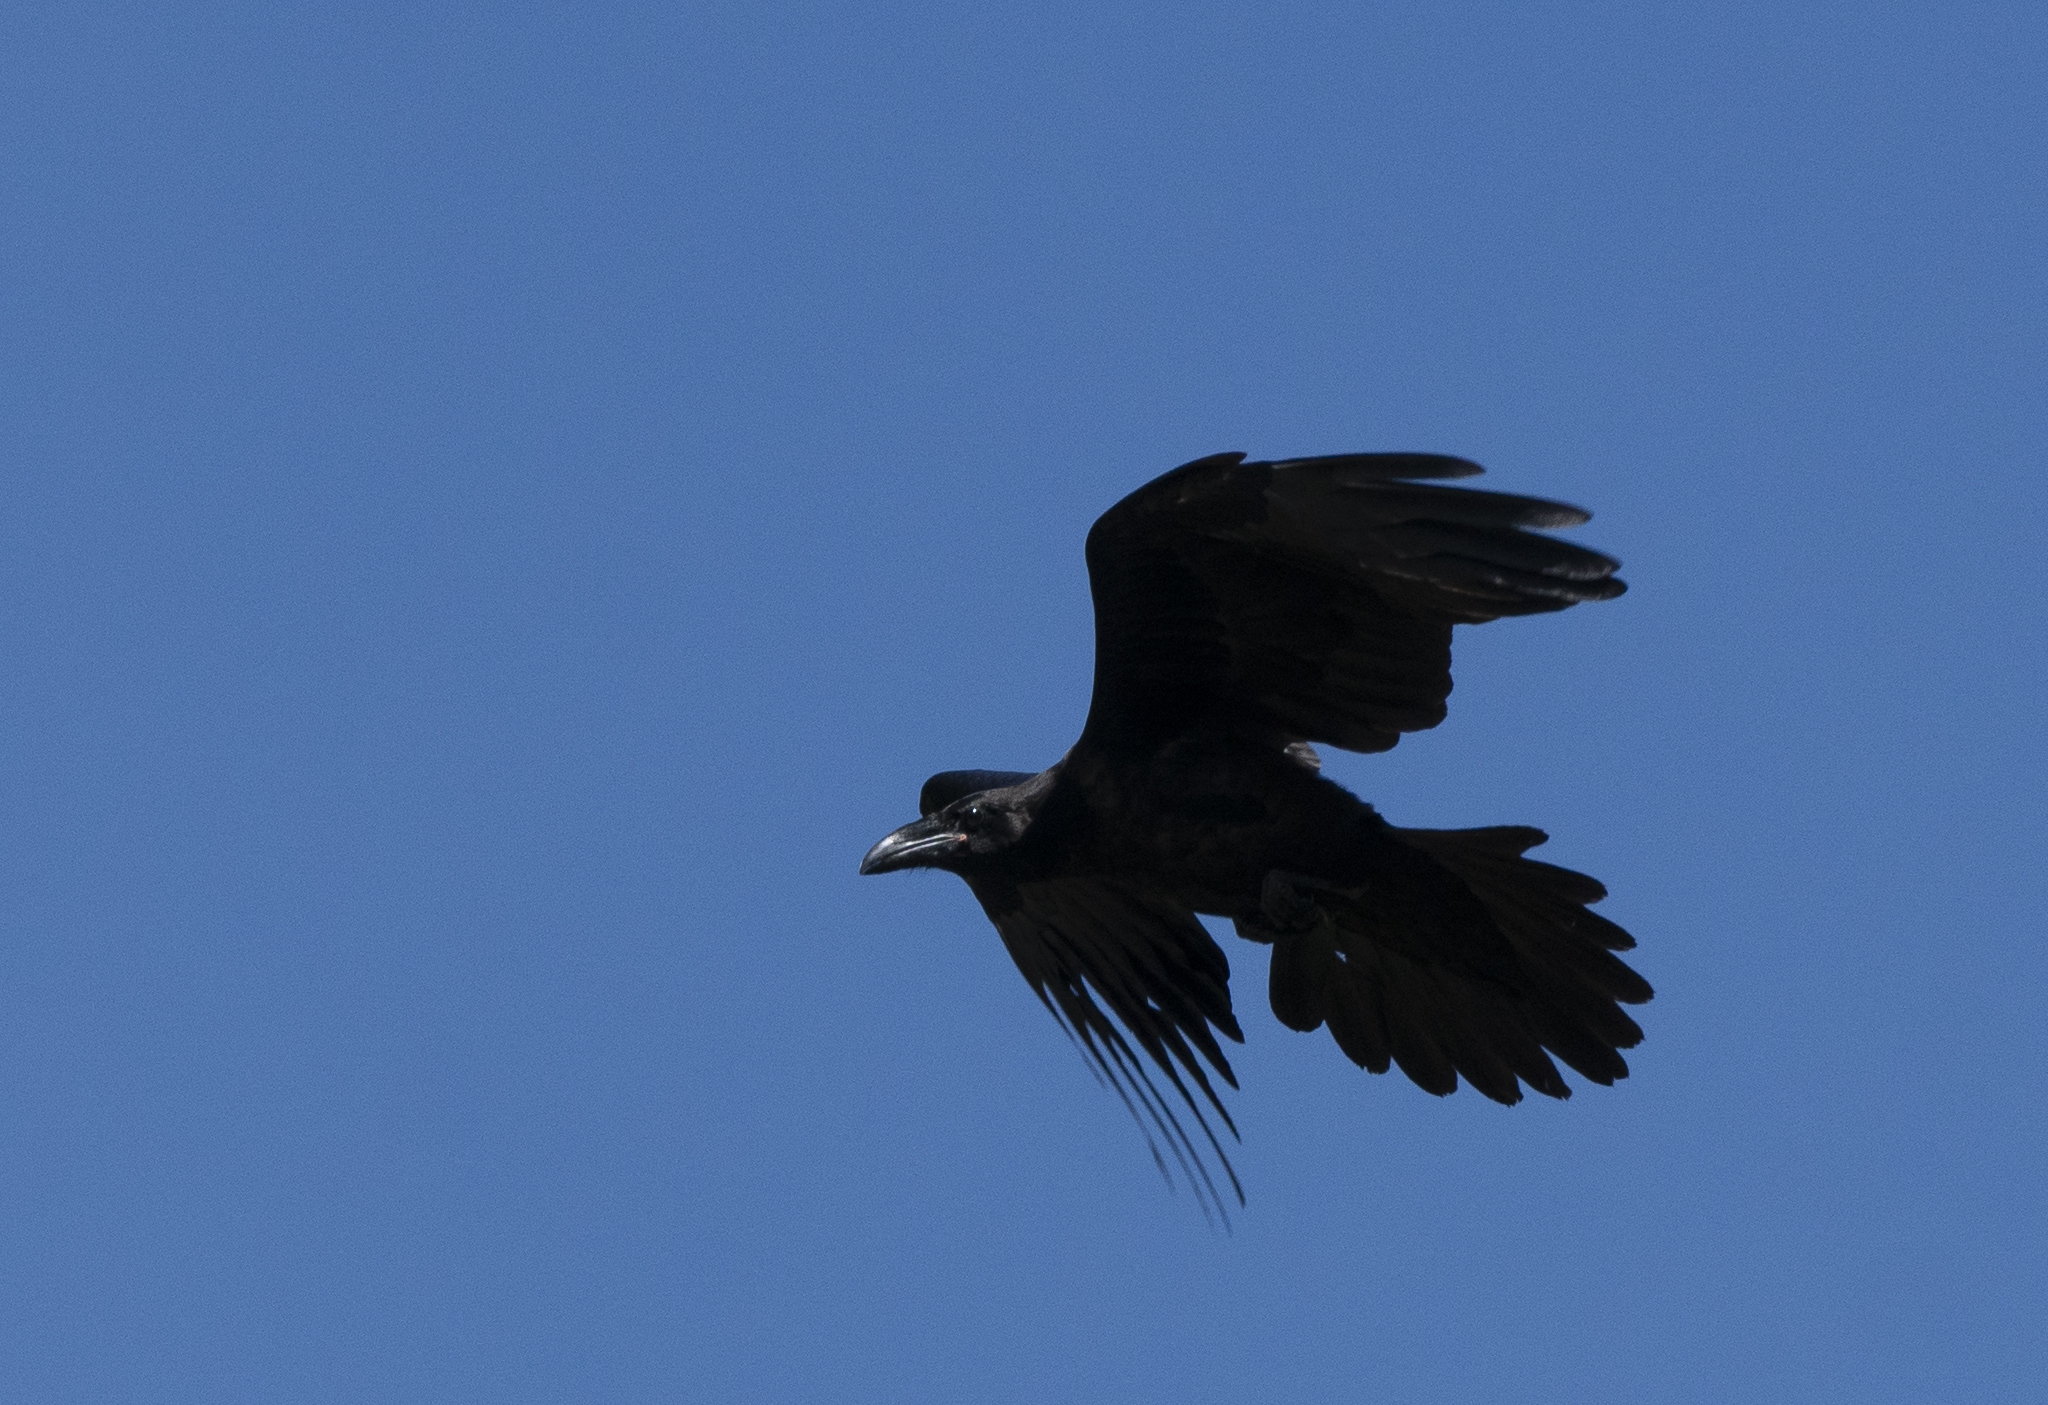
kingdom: Animalia
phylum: Chordata
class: Aves
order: Passeriformes
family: Corvidae
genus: Corvus
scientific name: Corvus corax
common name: Common raven
